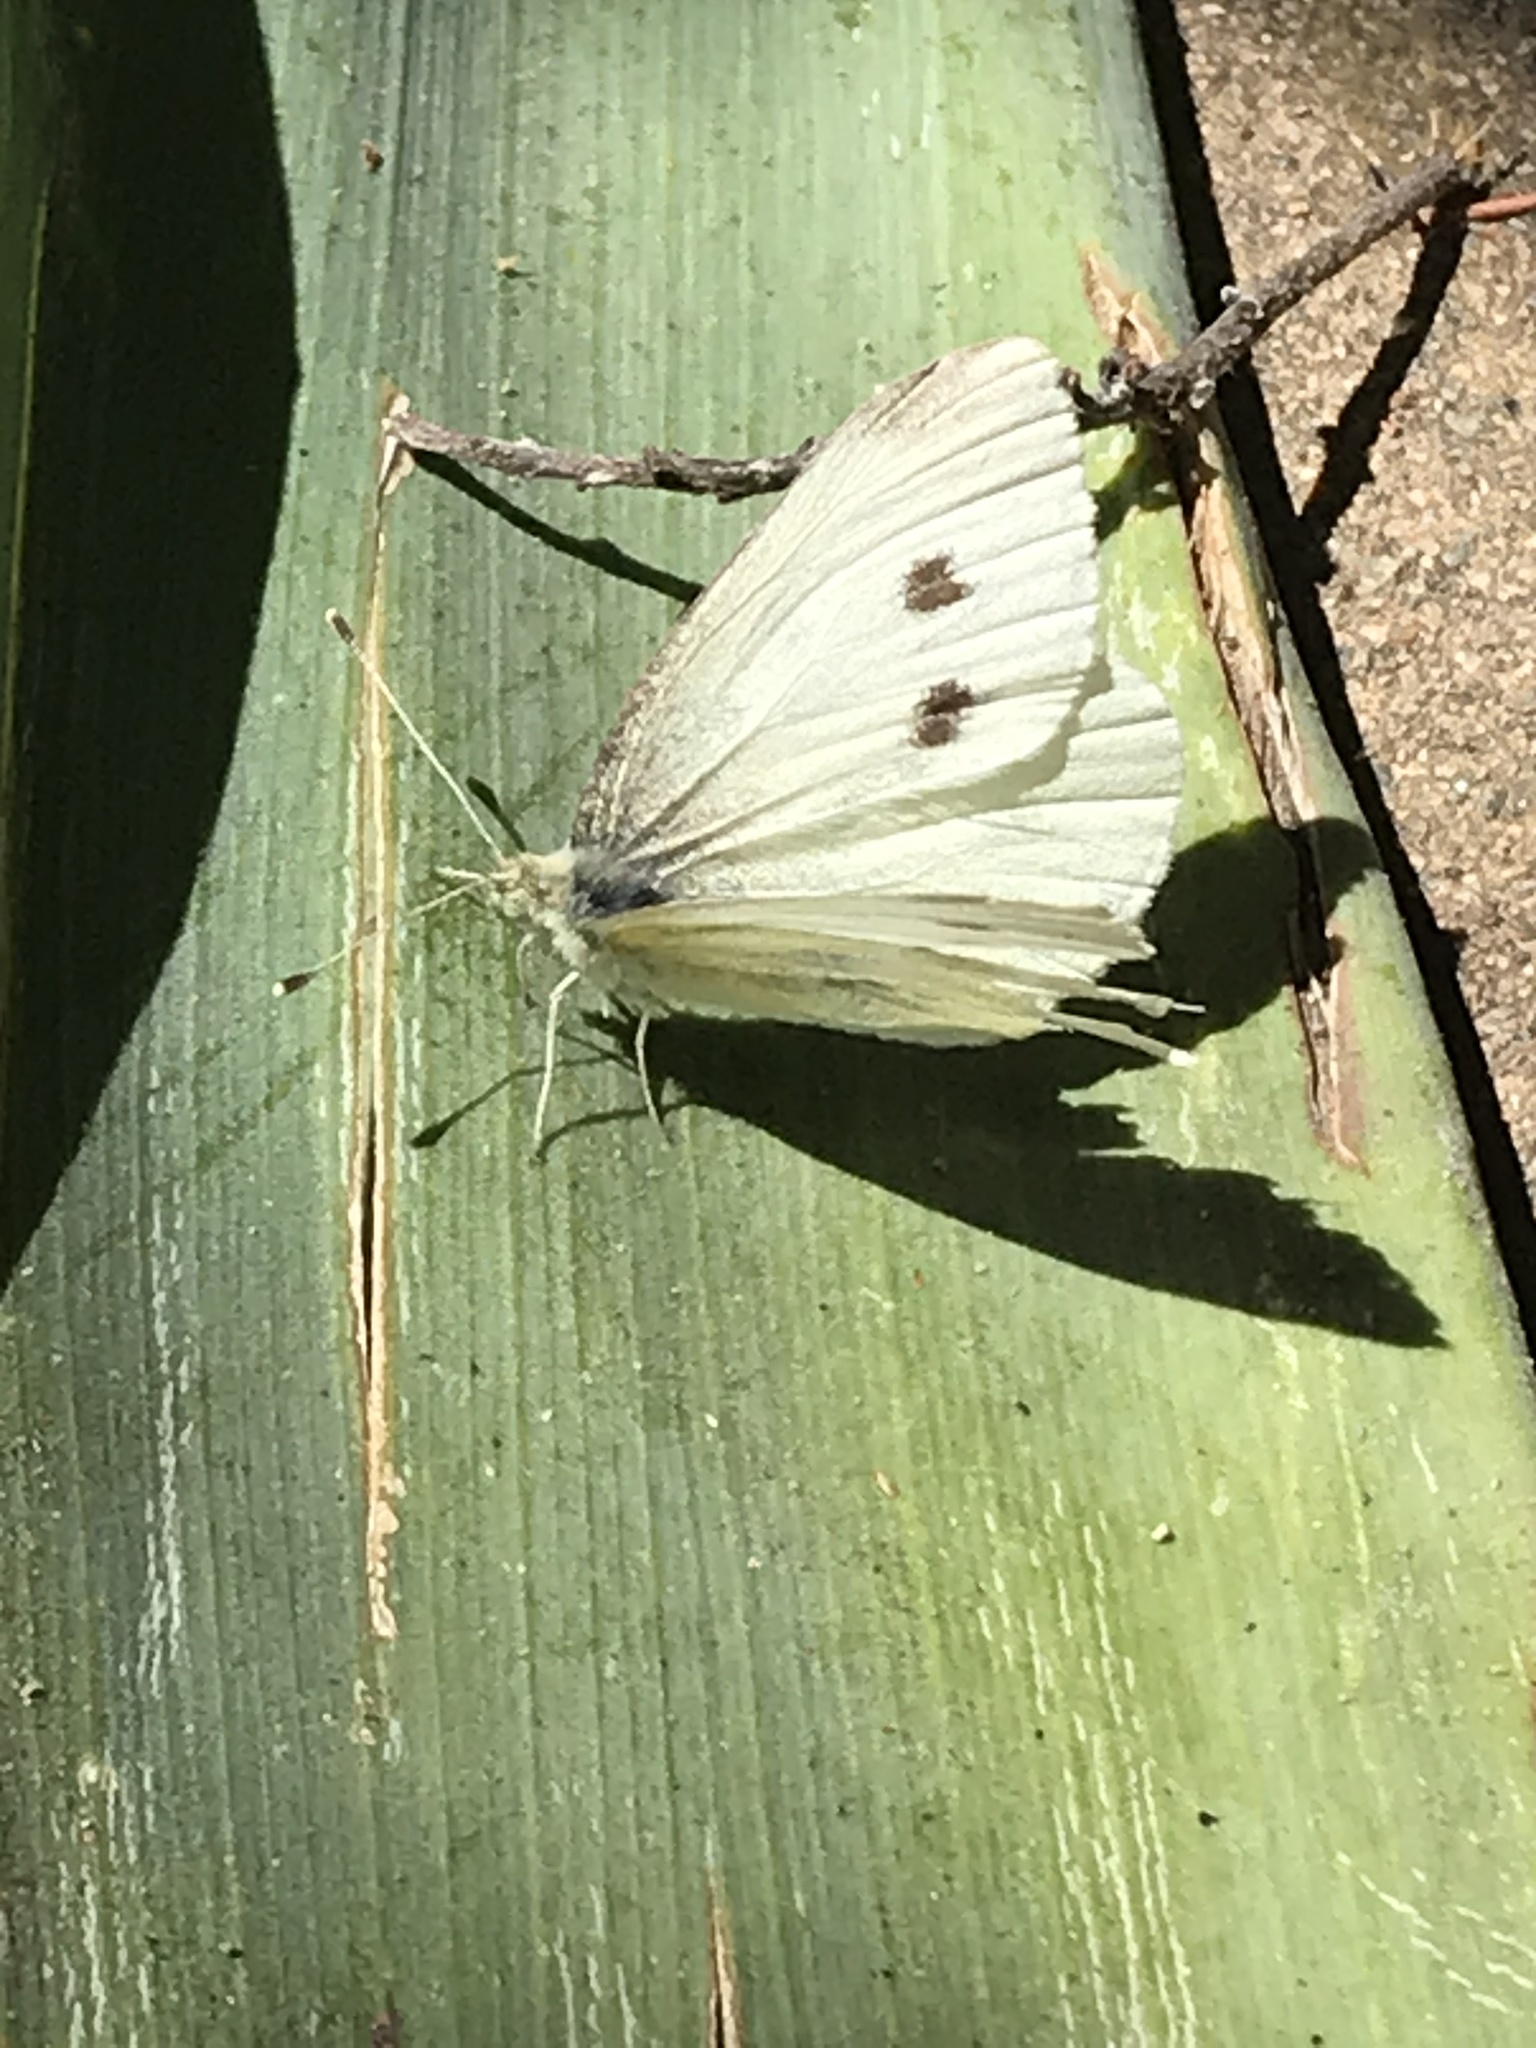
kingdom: Animalia
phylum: Arthropoda
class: Insecta
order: Lepidoptera
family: Pieridae
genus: Pieris
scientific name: Pieris rapae
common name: Small white
